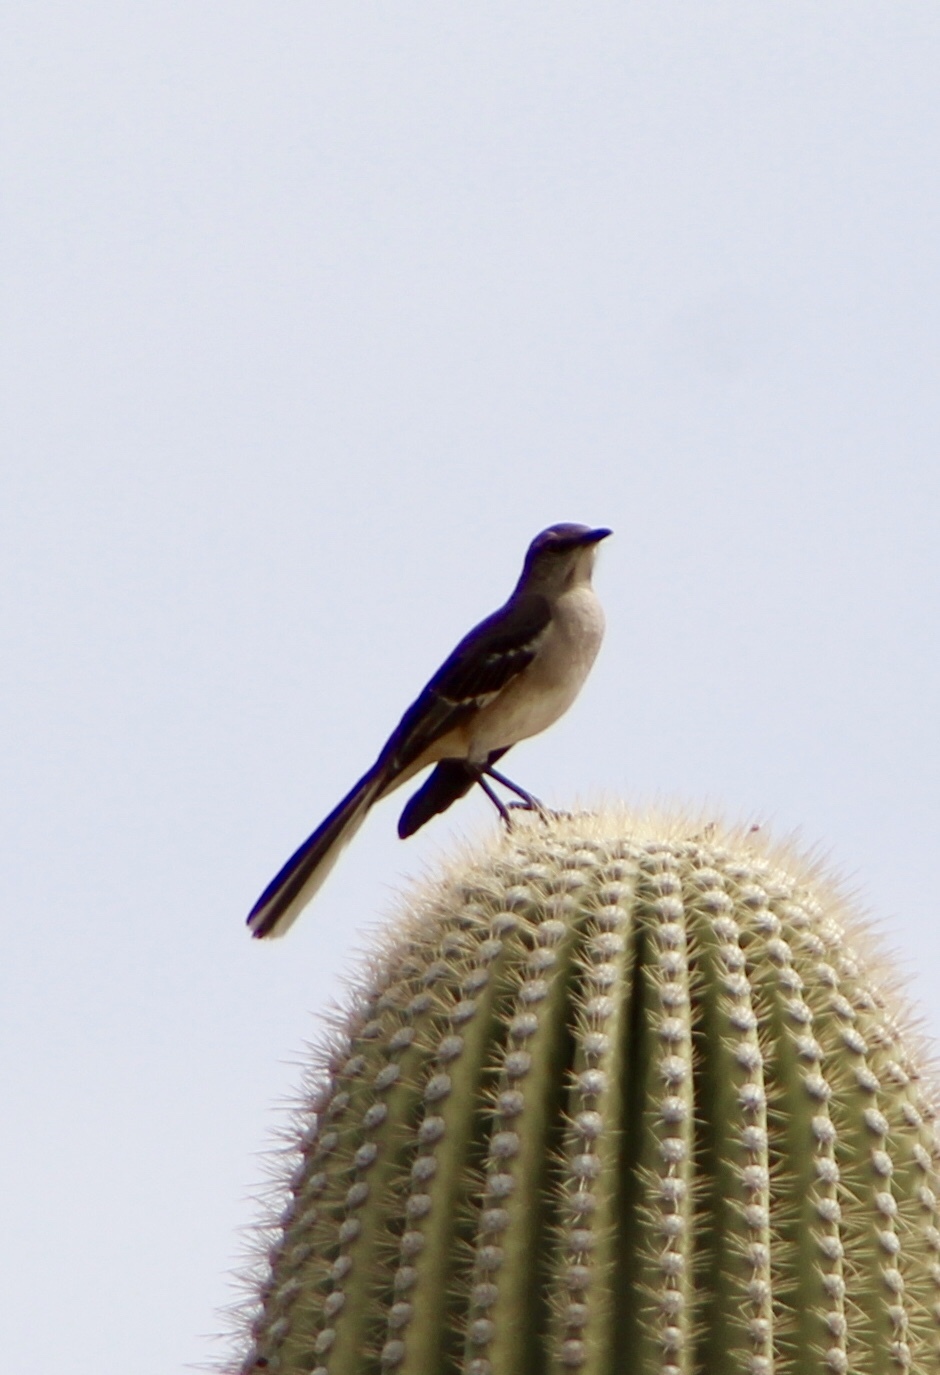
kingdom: Animalia
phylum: Chordata
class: Aves
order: Passeriformes
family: Mimidae
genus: Mimus
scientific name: Mimus polyglottos
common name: Northern mockingbird
